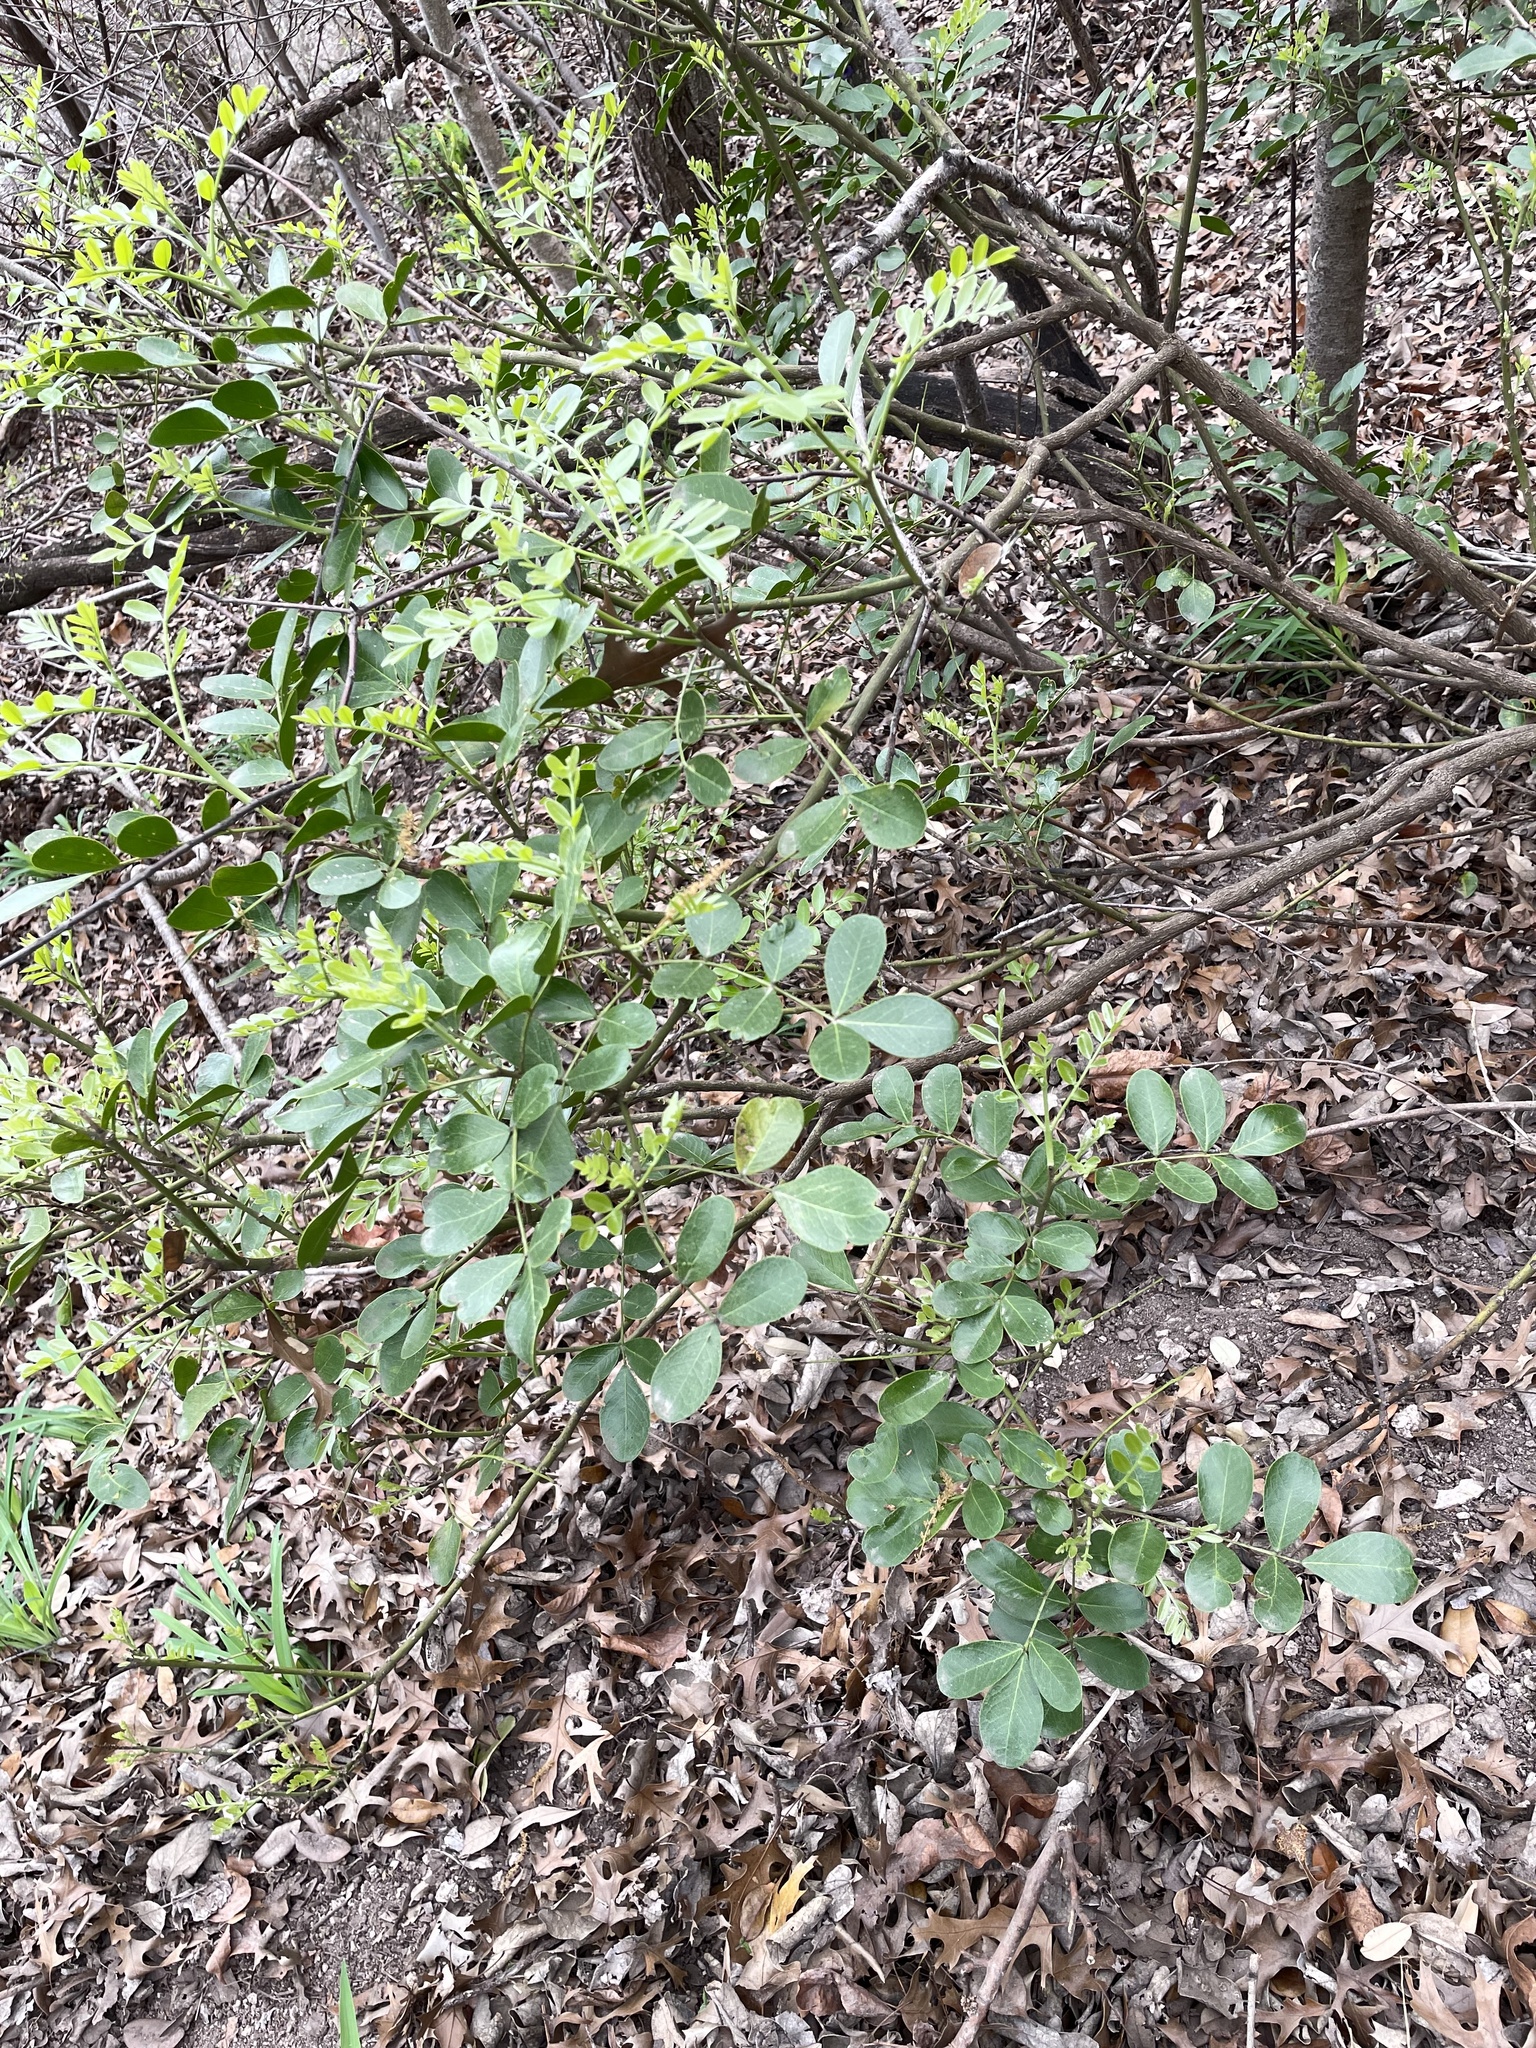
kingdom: Plantae
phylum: Tracheophyta
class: Magnoliopsida
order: Fabales
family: Fabaceae
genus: Dermatophyllum
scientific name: Dermatophyllum secundiflorum
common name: Texas-mountain-laurel
